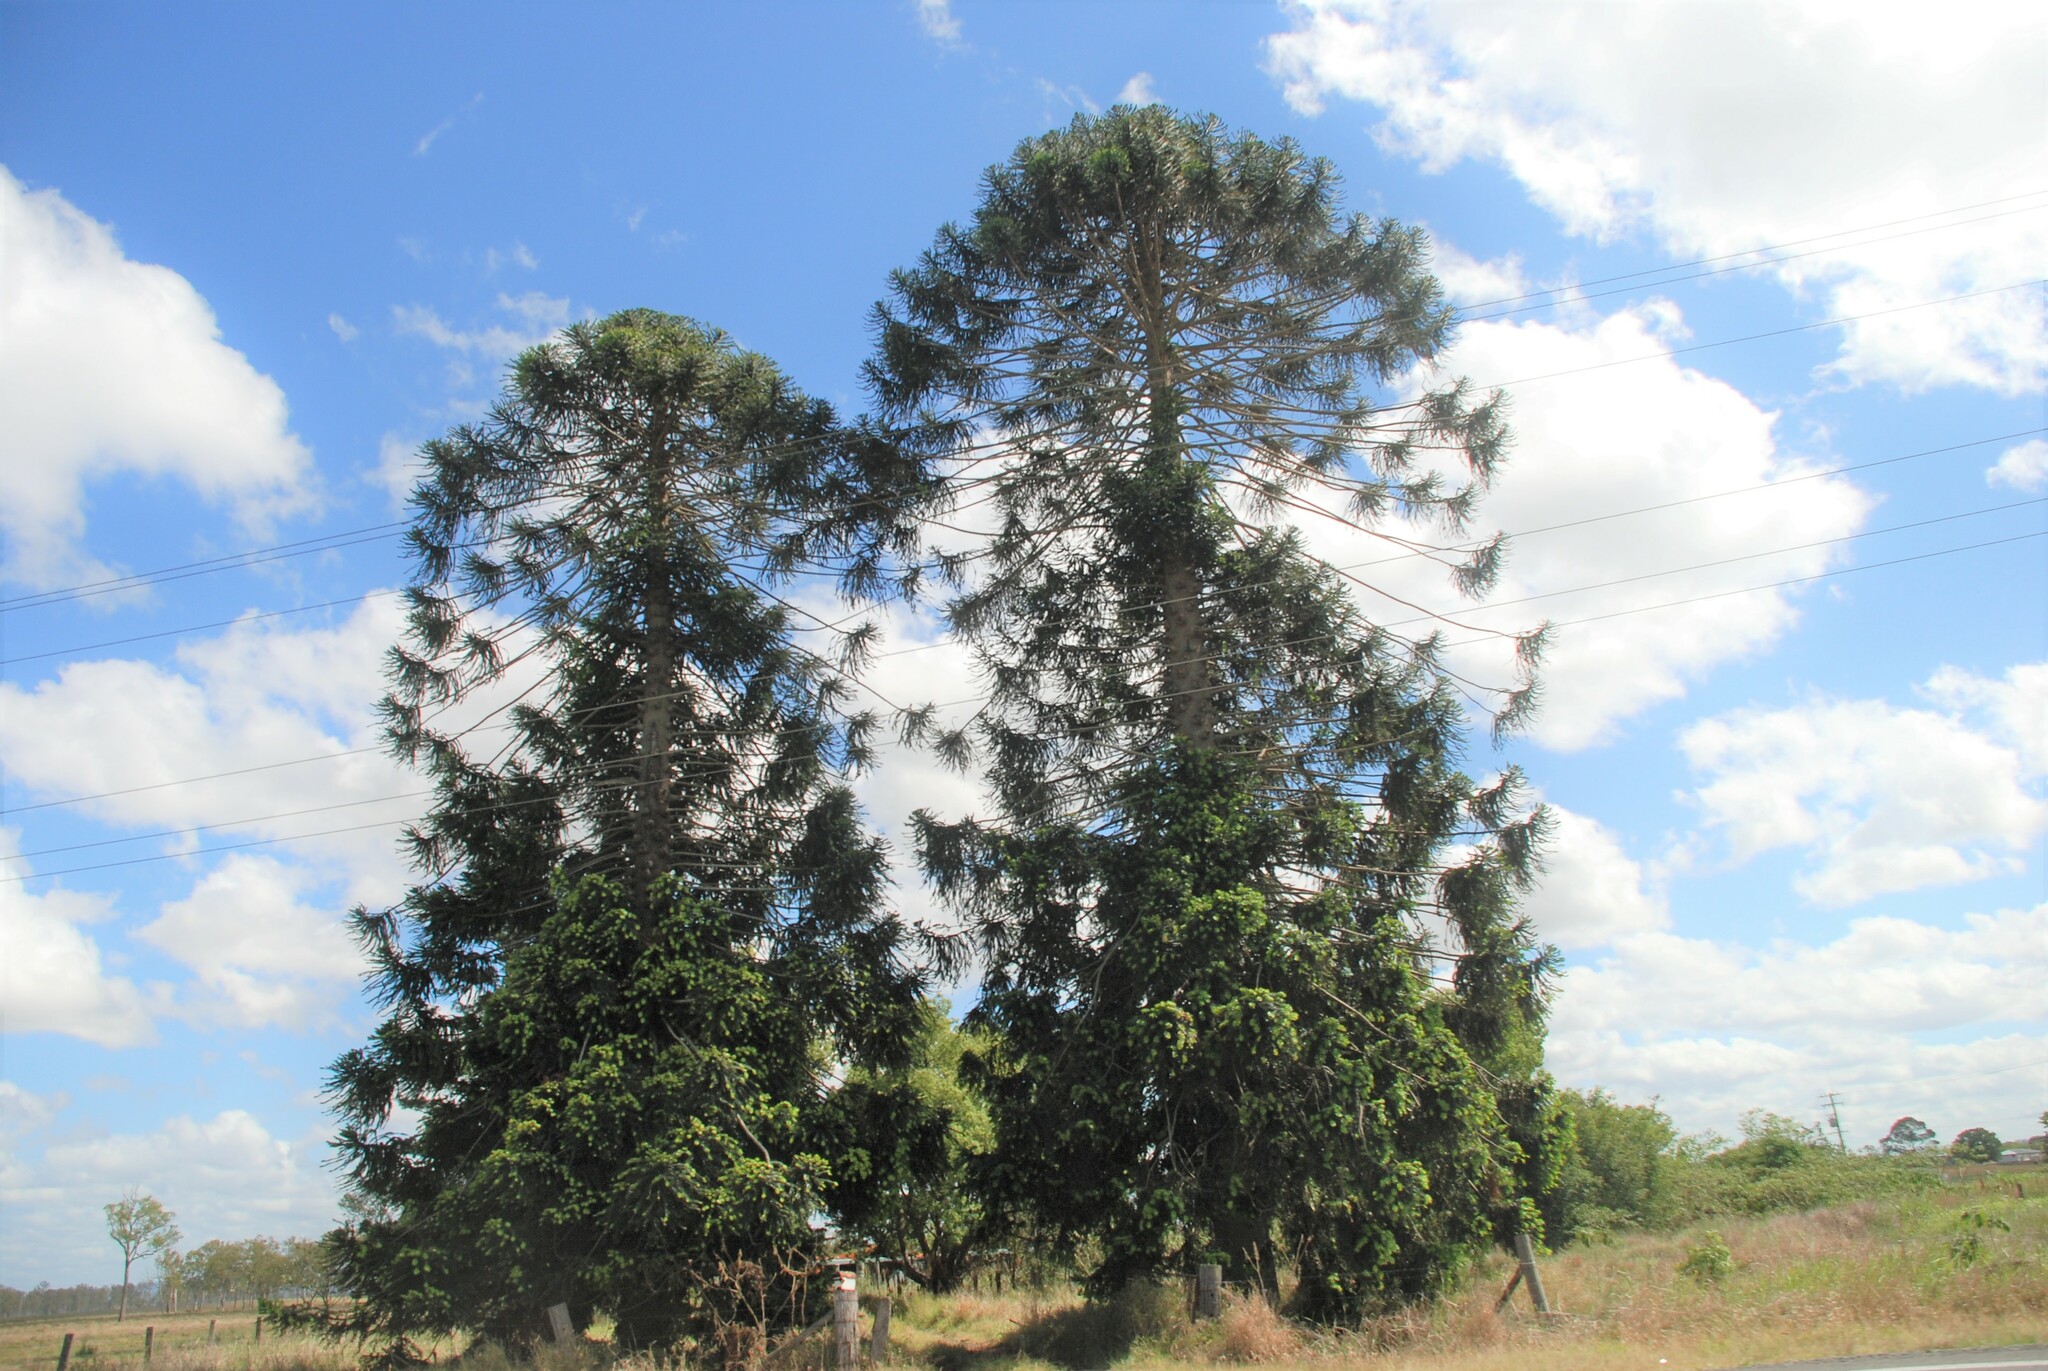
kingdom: Plantae
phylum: Tracheophyta
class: Pinopsida
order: Pinales
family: Araucariaceae
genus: Araucaria
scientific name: Araucaria bidwillii
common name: Moreton-bay-pine
